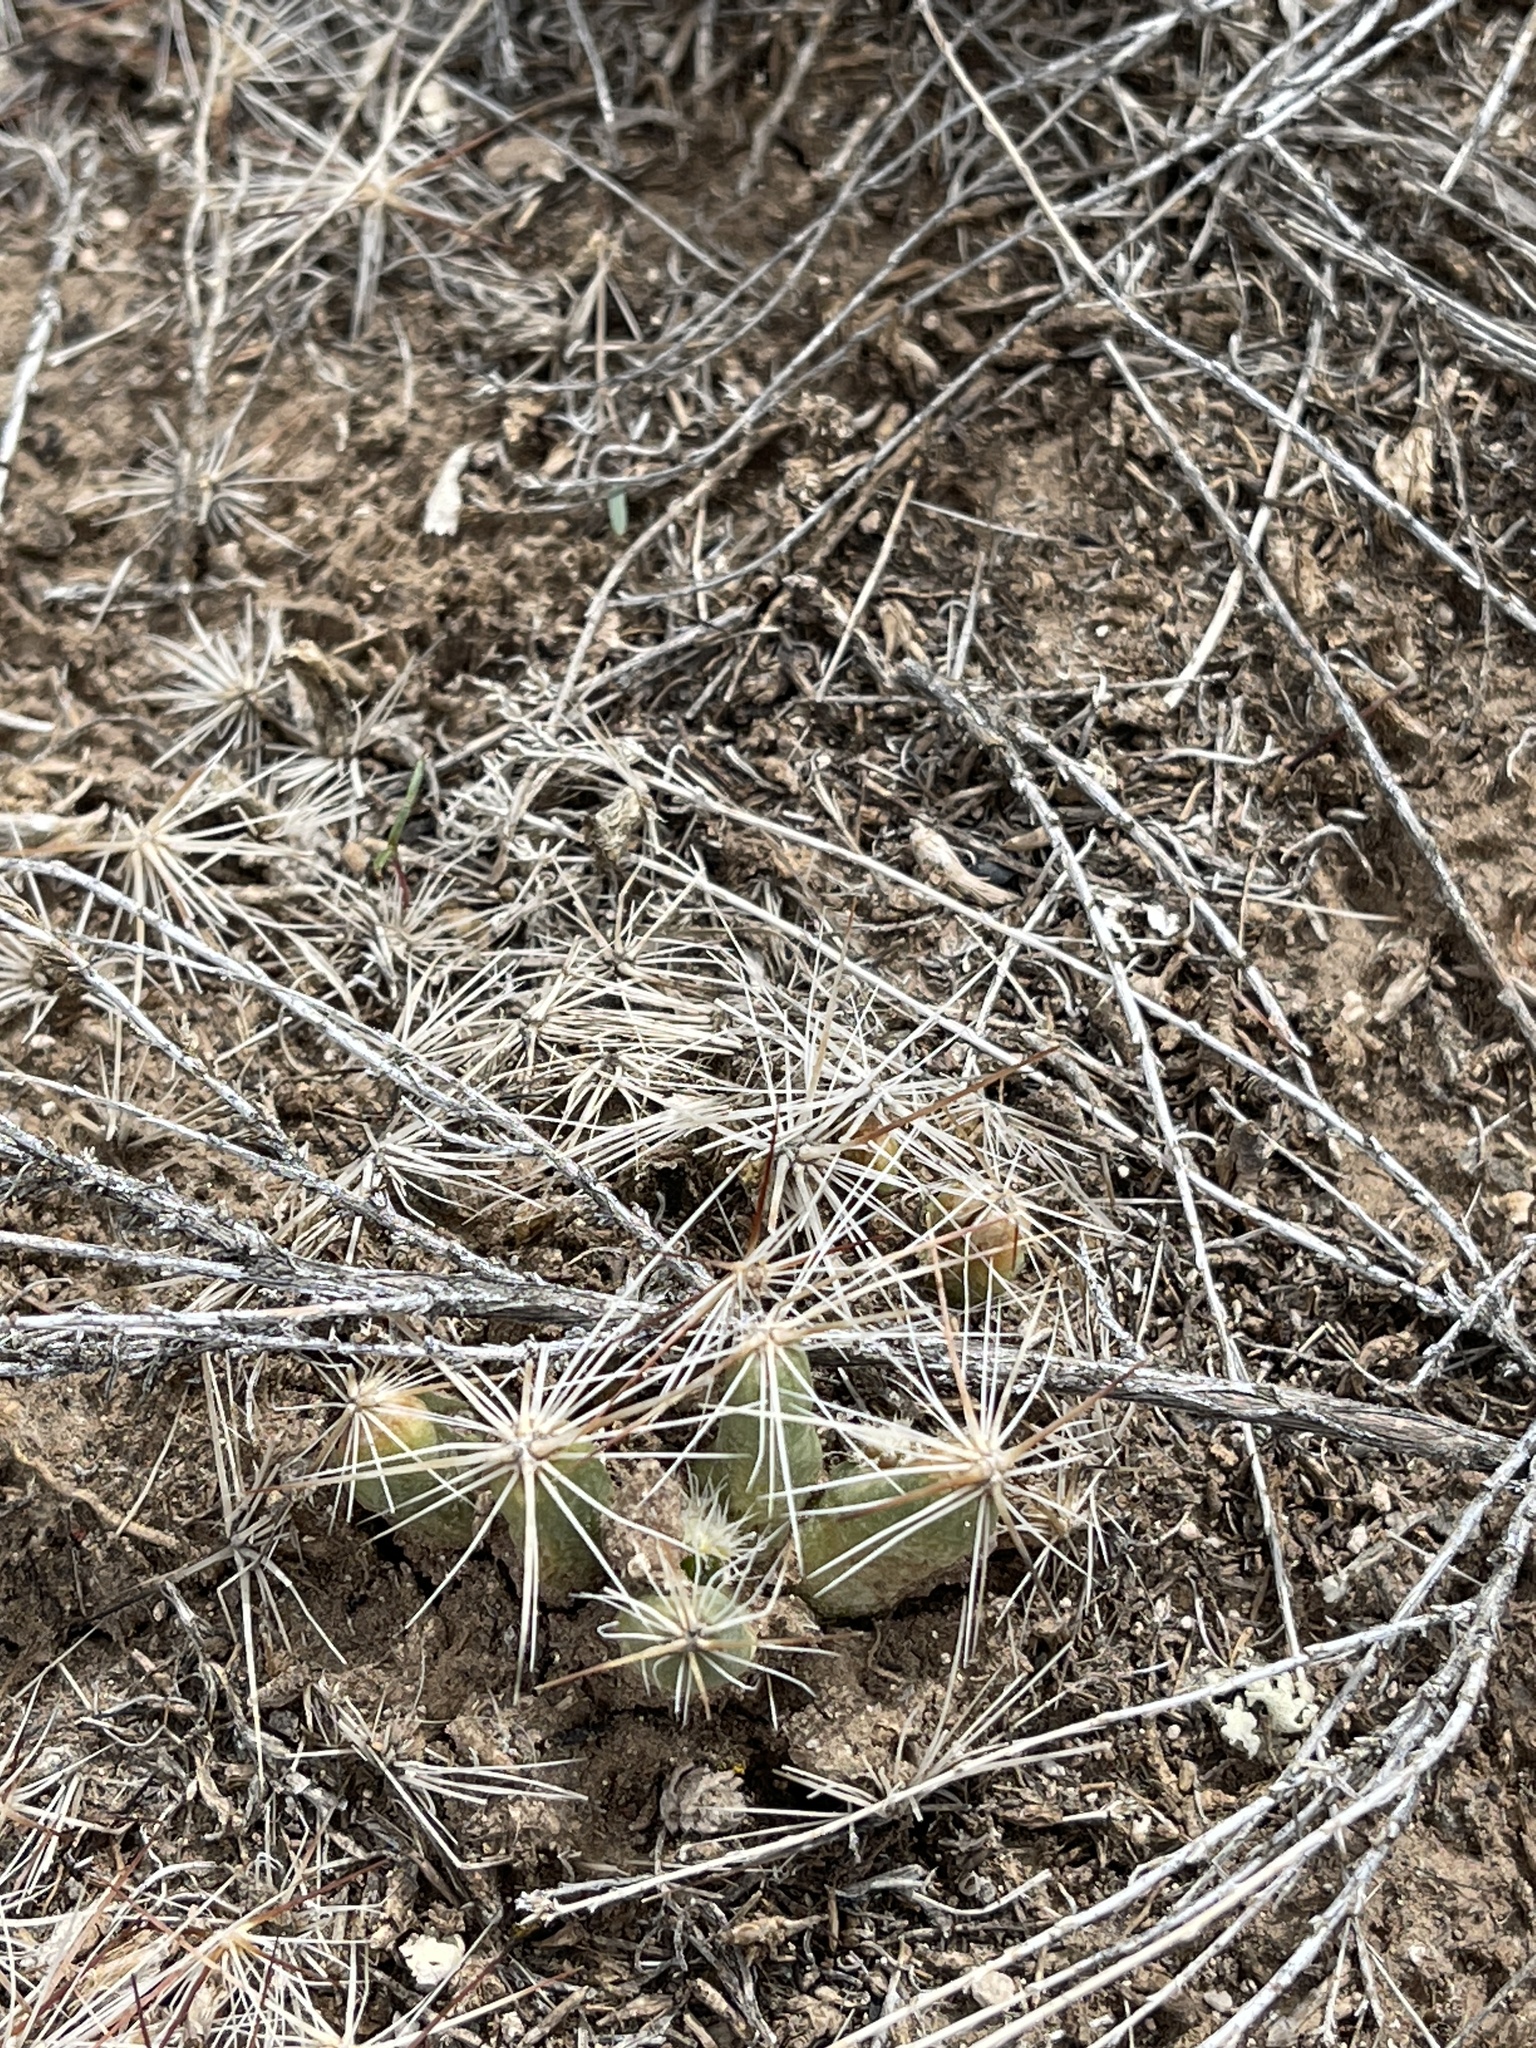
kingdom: Plantae
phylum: Tracheophyta
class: Magnoliopsida
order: Caryophyllales
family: Cactaceae
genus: Pelecyphora
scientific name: Pelecyphora vivipara
